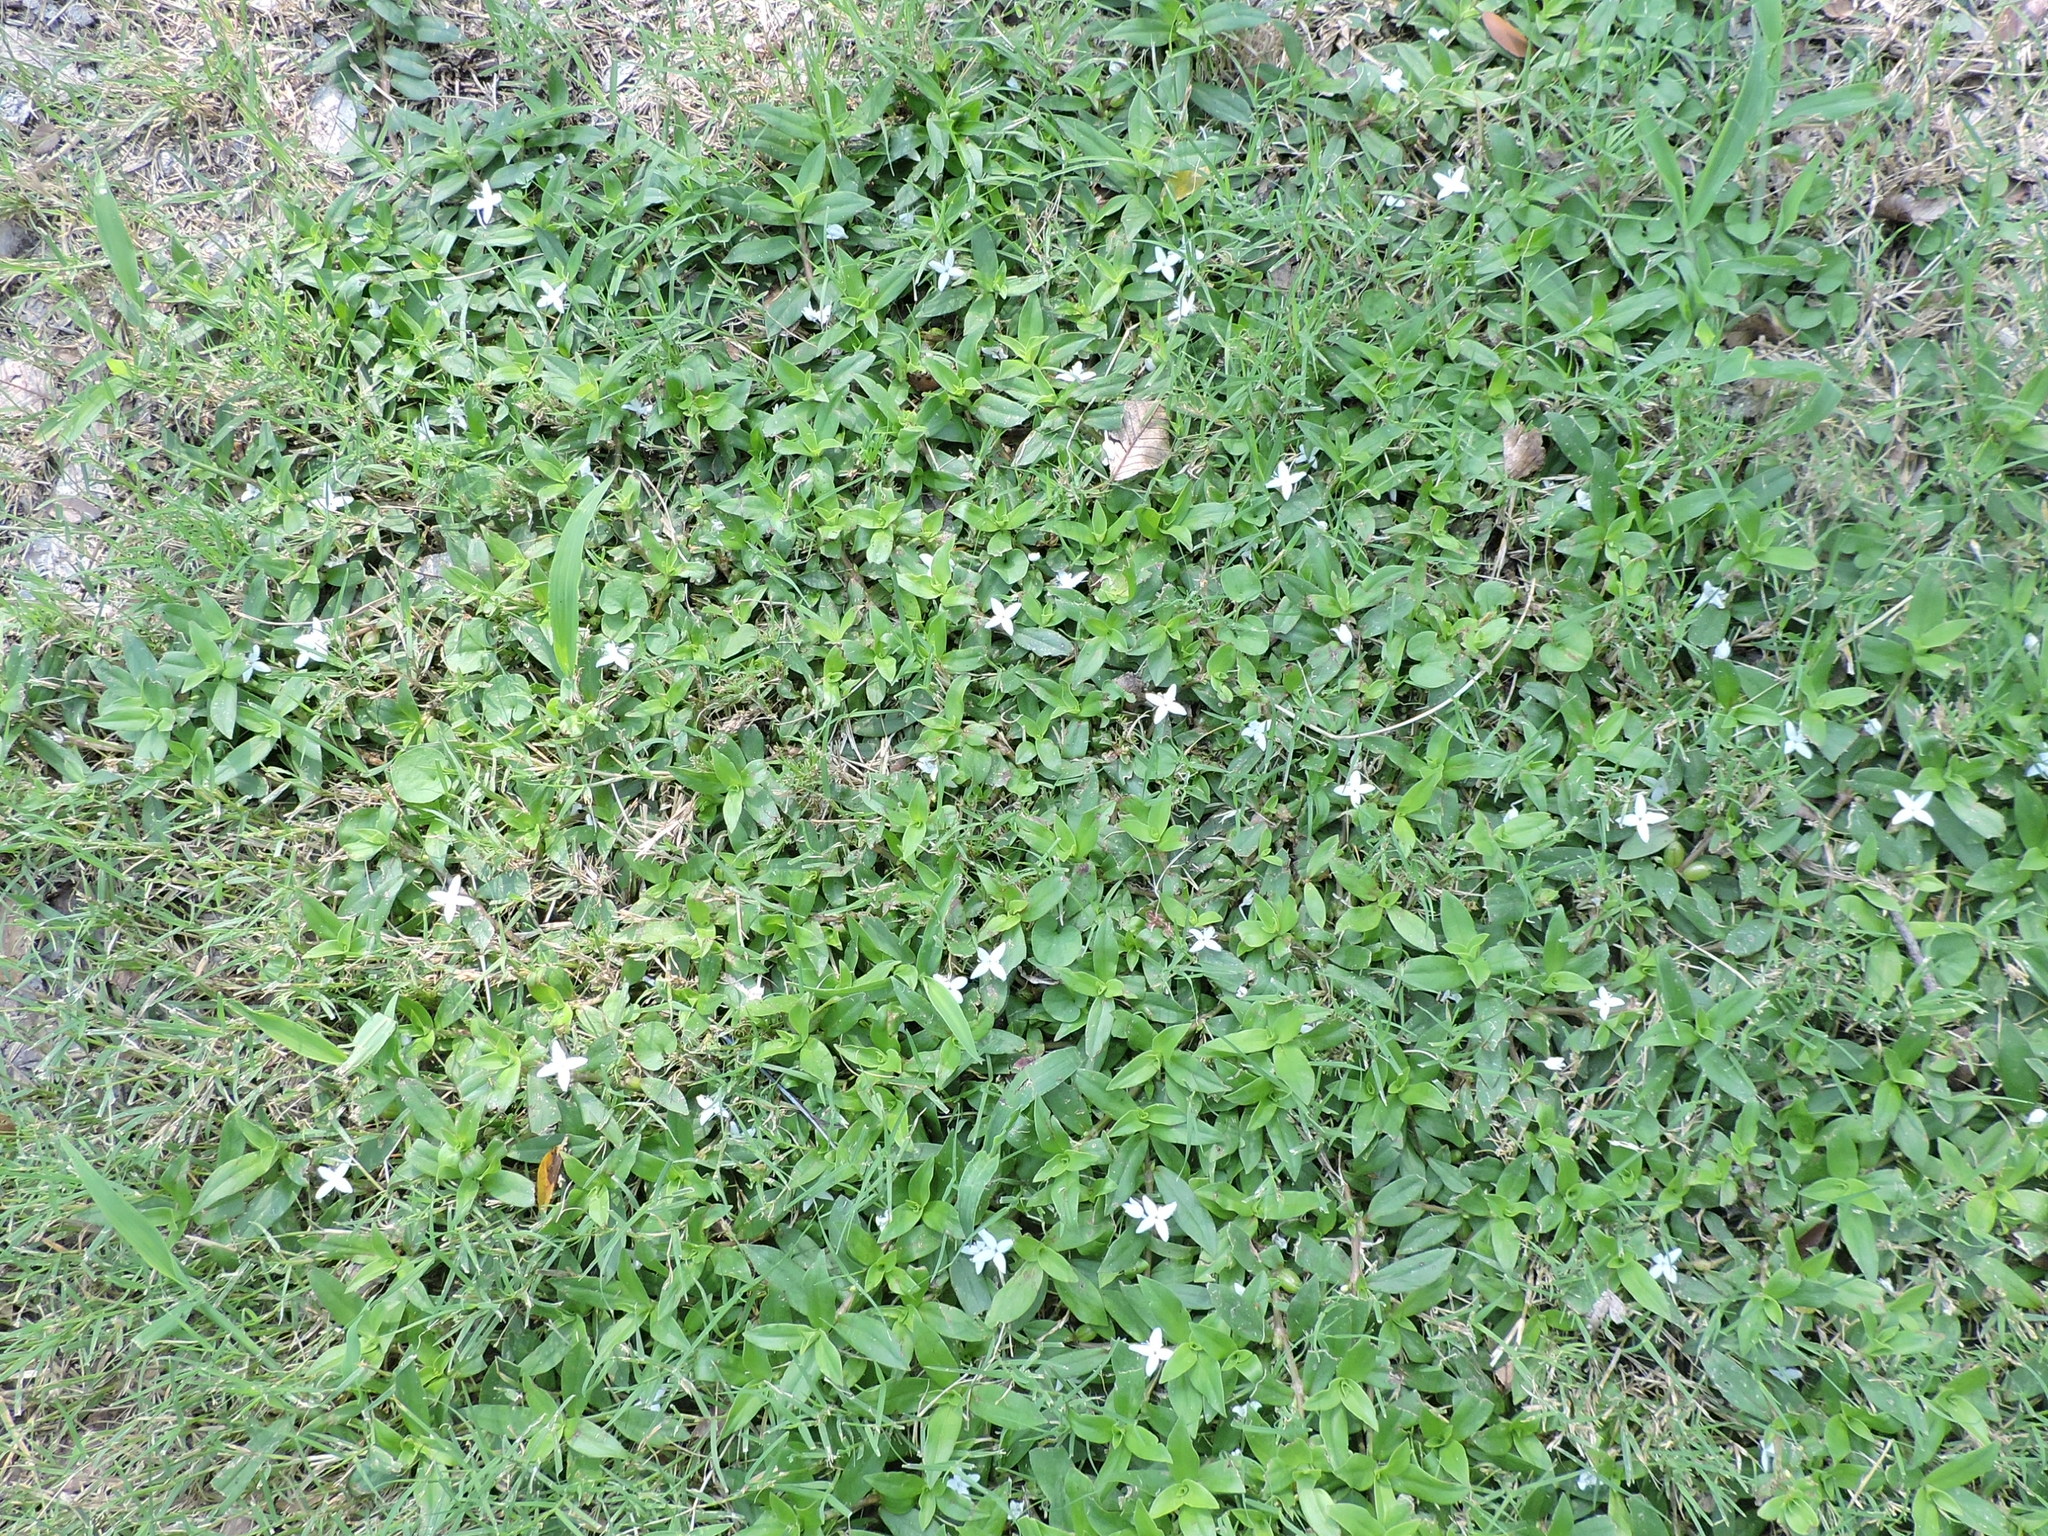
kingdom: Plantae
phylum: Tracheophyta
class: Magnoliopsida
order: Gentianales
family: Rubiaceae
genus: Diodia
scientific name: Diodia virginiana
